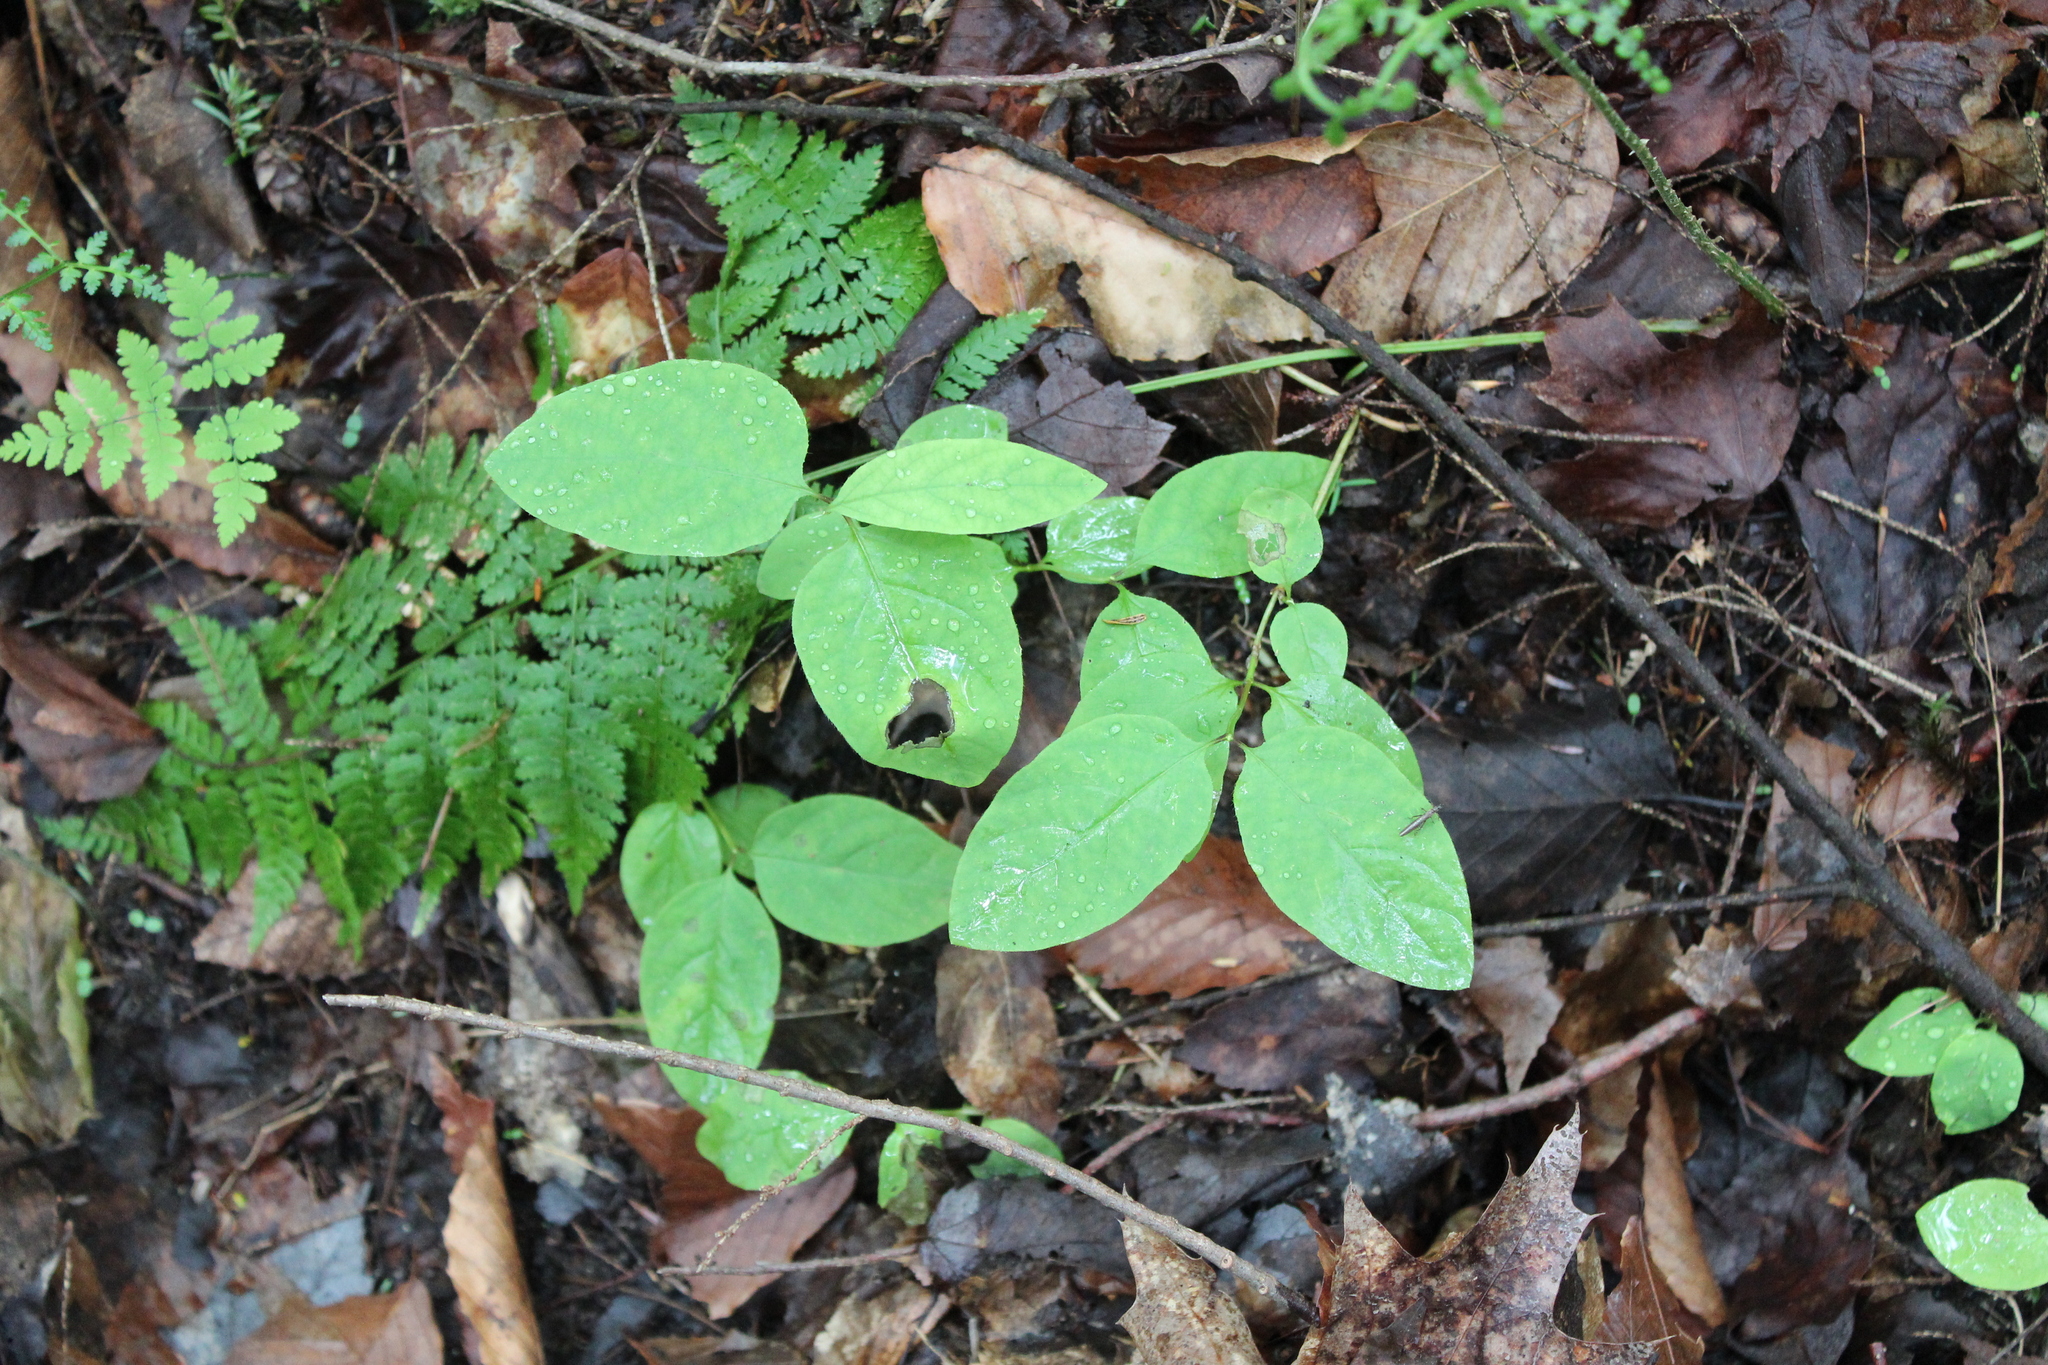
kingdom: Plantae
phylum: Tracheophyta
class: Magnoliopsida
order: Dipsacales
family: Caprifoliaceae
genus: Lonicera
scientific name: Lonicera canadensis
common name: American fly-honeysuckle
